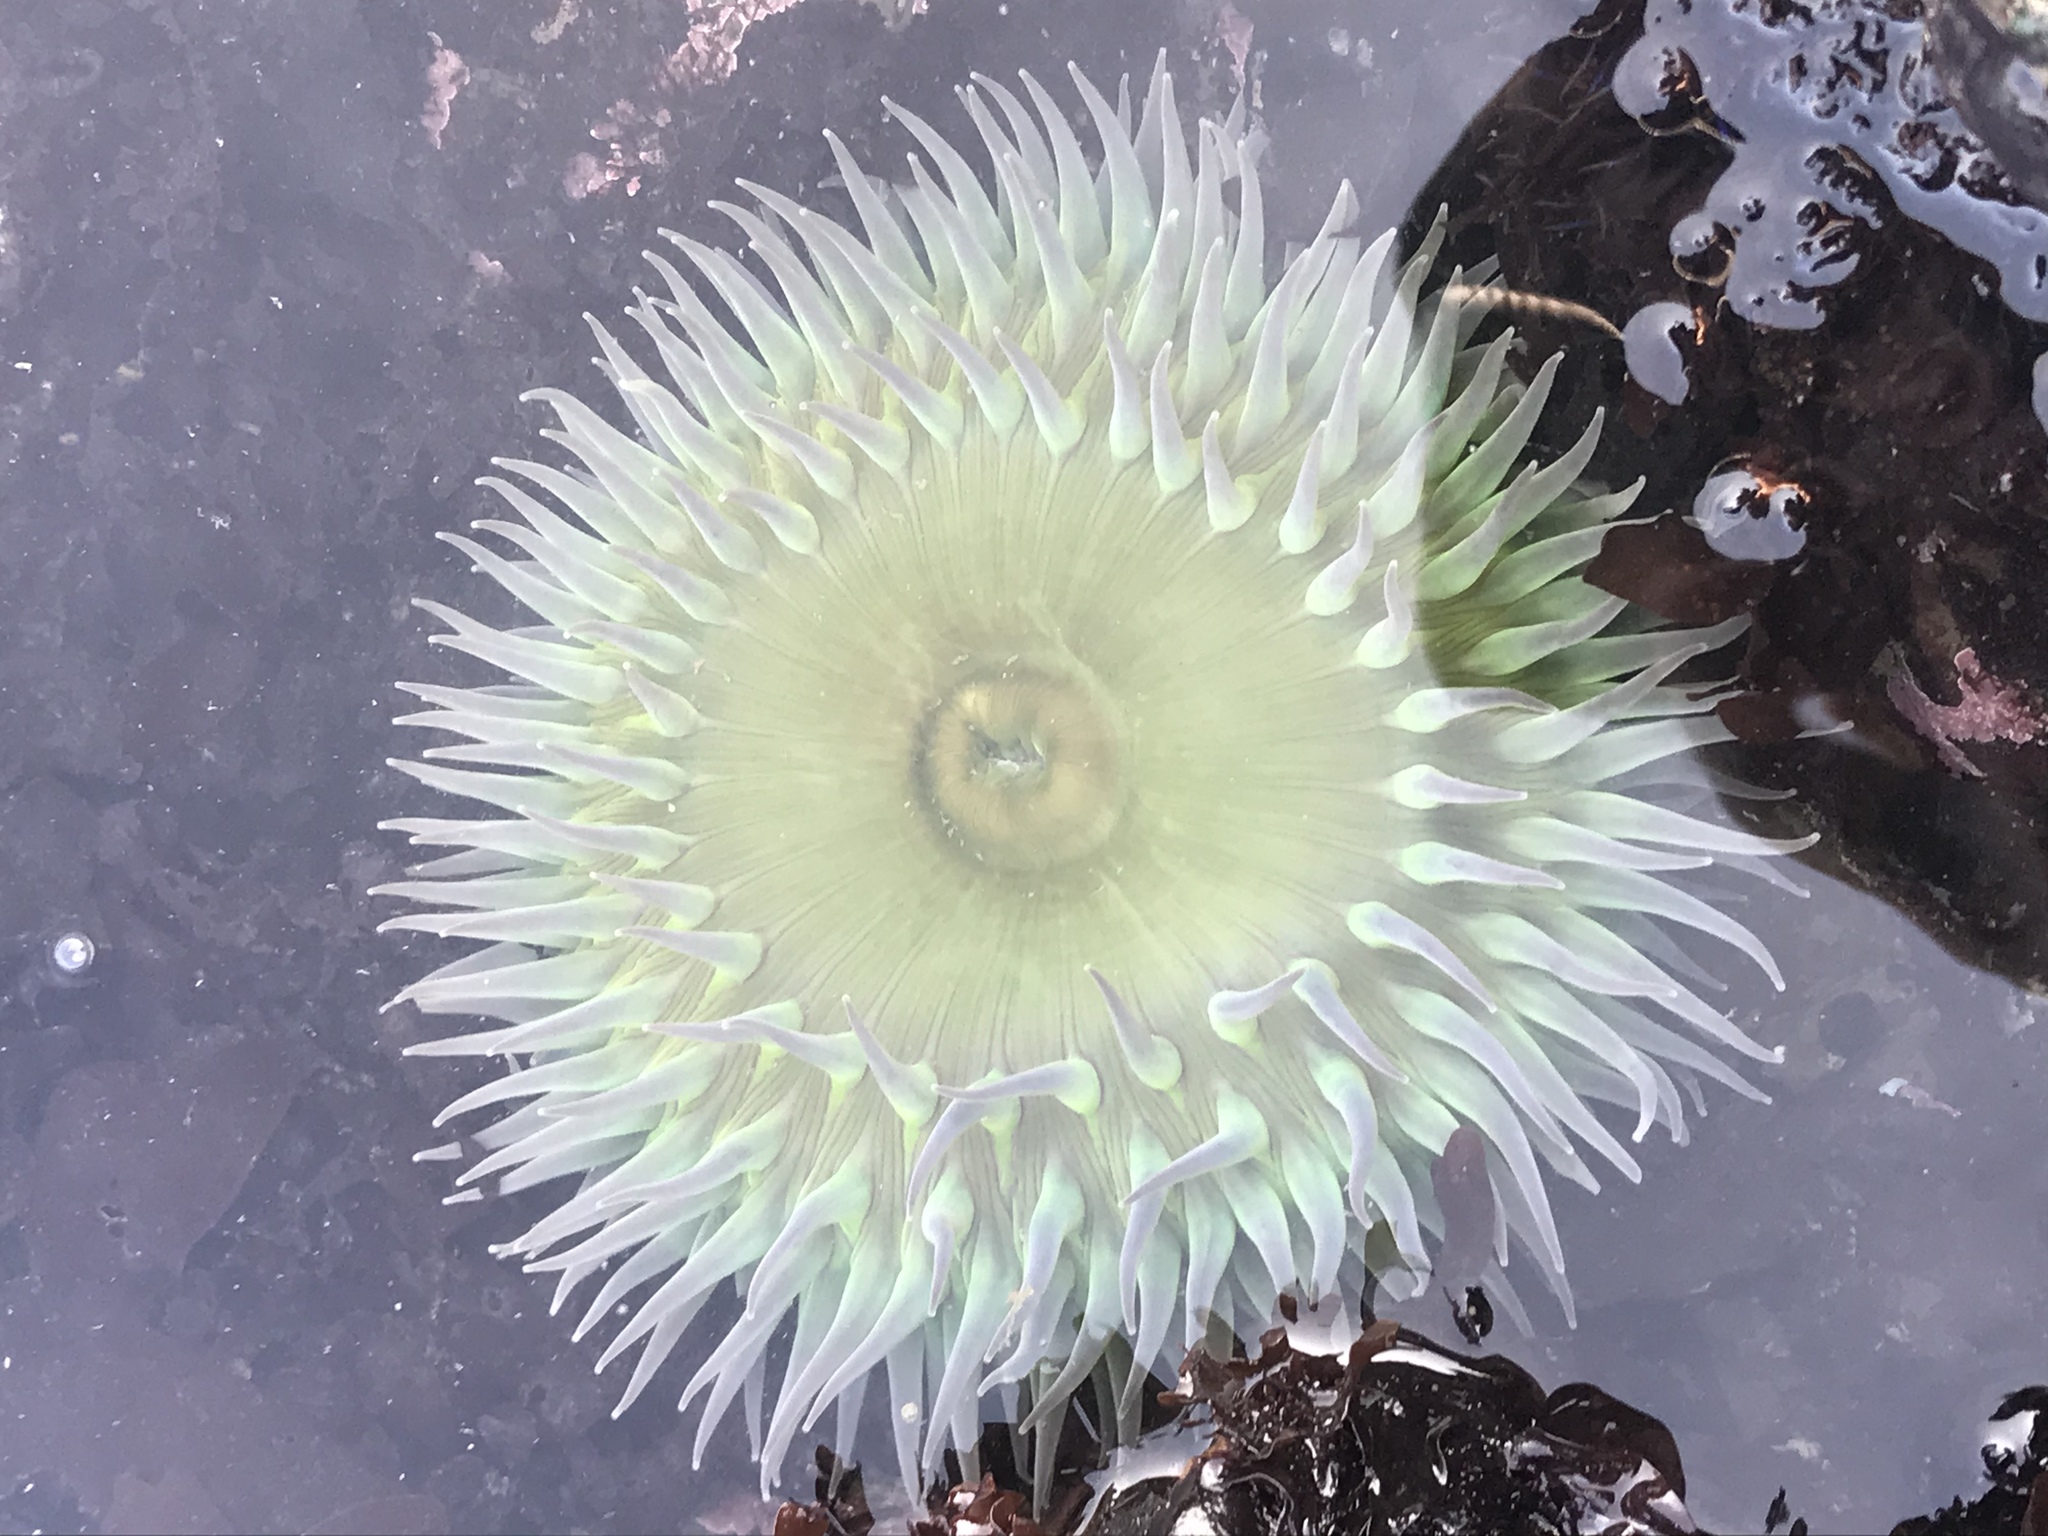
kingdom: Animalia
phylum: Cnidaria
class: Anthozoa
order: Actiniaria
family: Actiniidae
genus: Anthopleura
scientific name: Anthopleura xanthogrammica
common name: Giant green anemone
